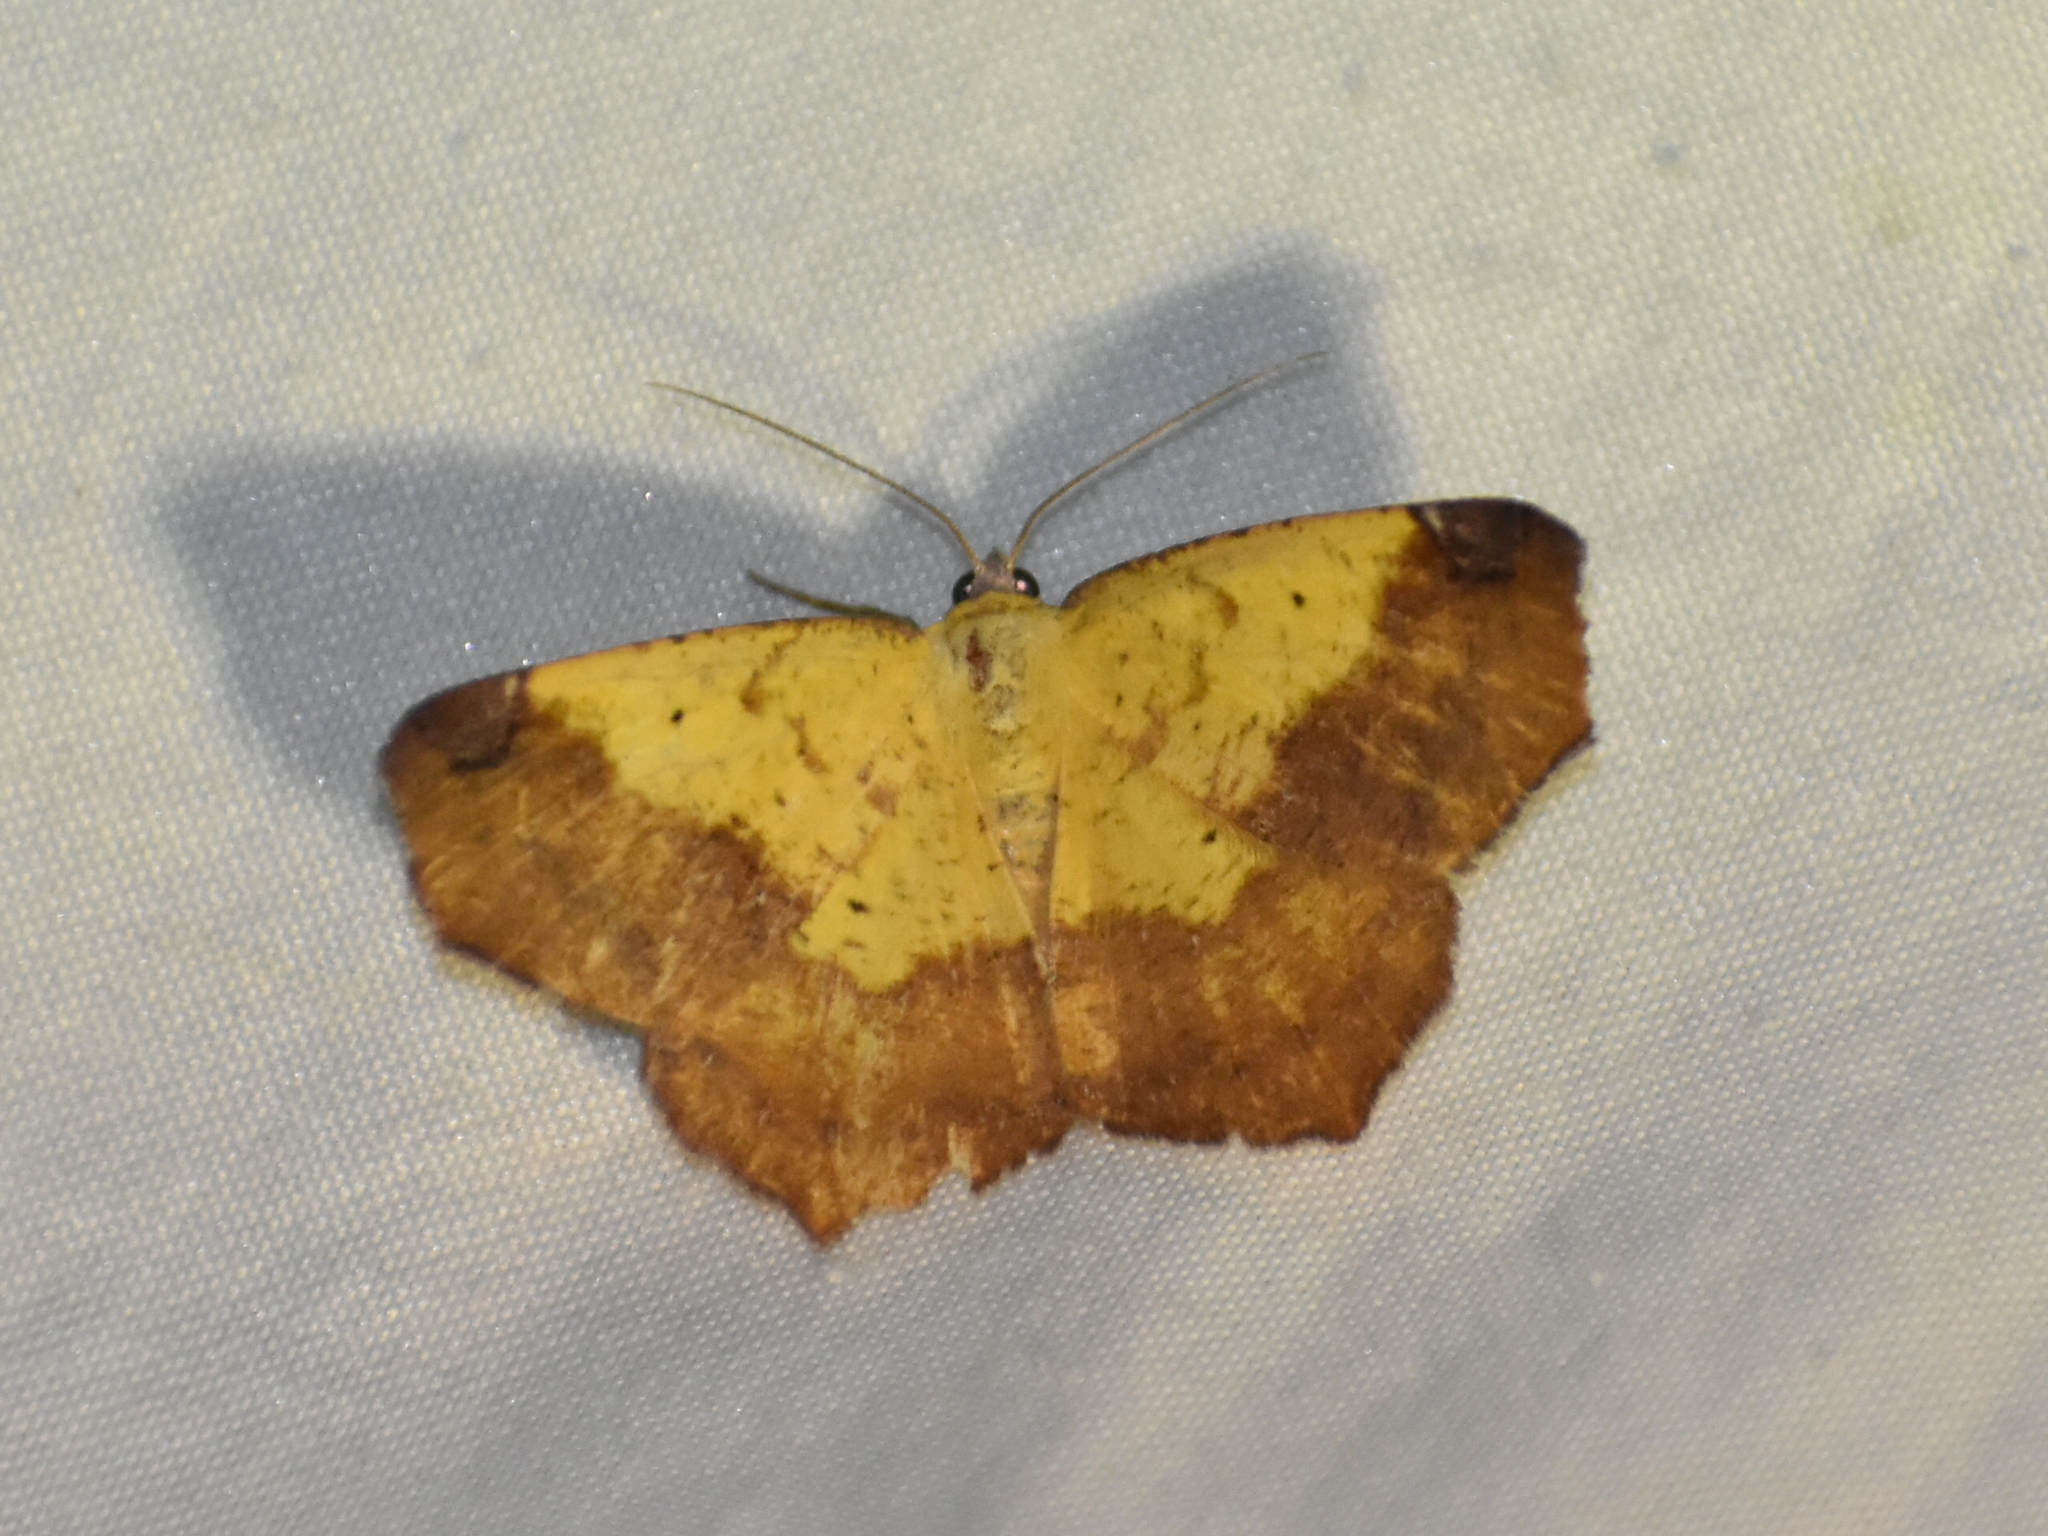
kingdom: Animalia
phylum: Arthropoda
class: Insecta
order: Lepidoptera
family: Geometridae
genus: Antepione
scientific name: Antepione thisoaria
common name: Variable antipione
